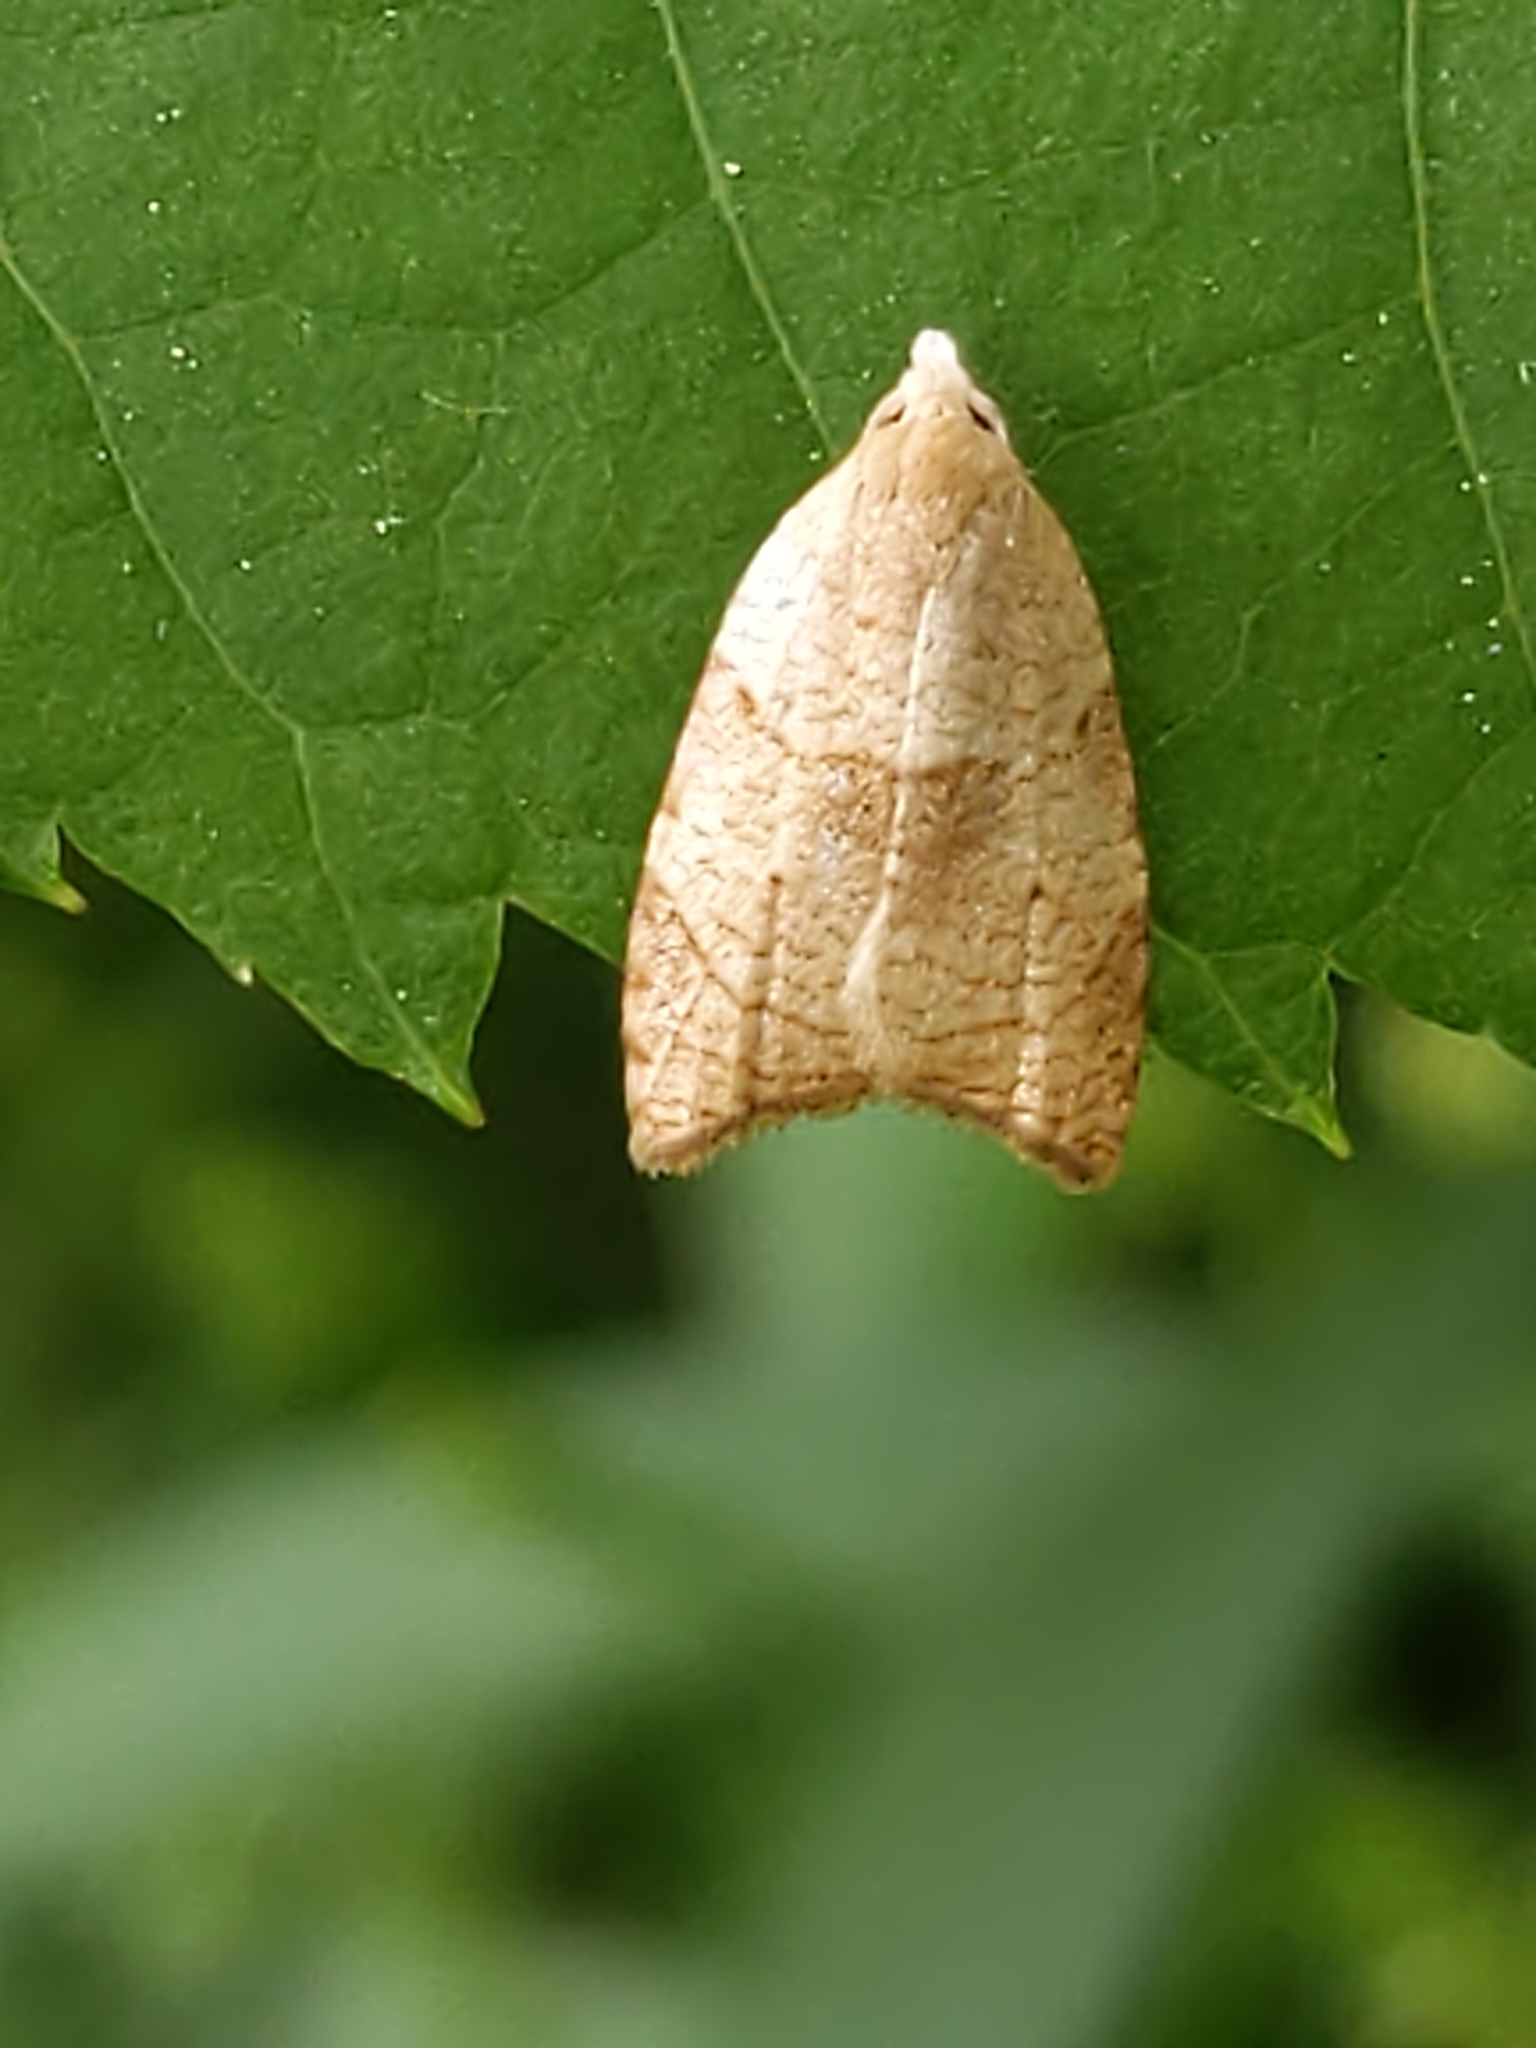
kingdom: Animalia
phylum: Arthropoda
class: Insecta
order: Lepidoptera
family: Tortricidae
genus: Coelostathma
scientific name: Coelostathma discopunctana
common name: Batman moth
